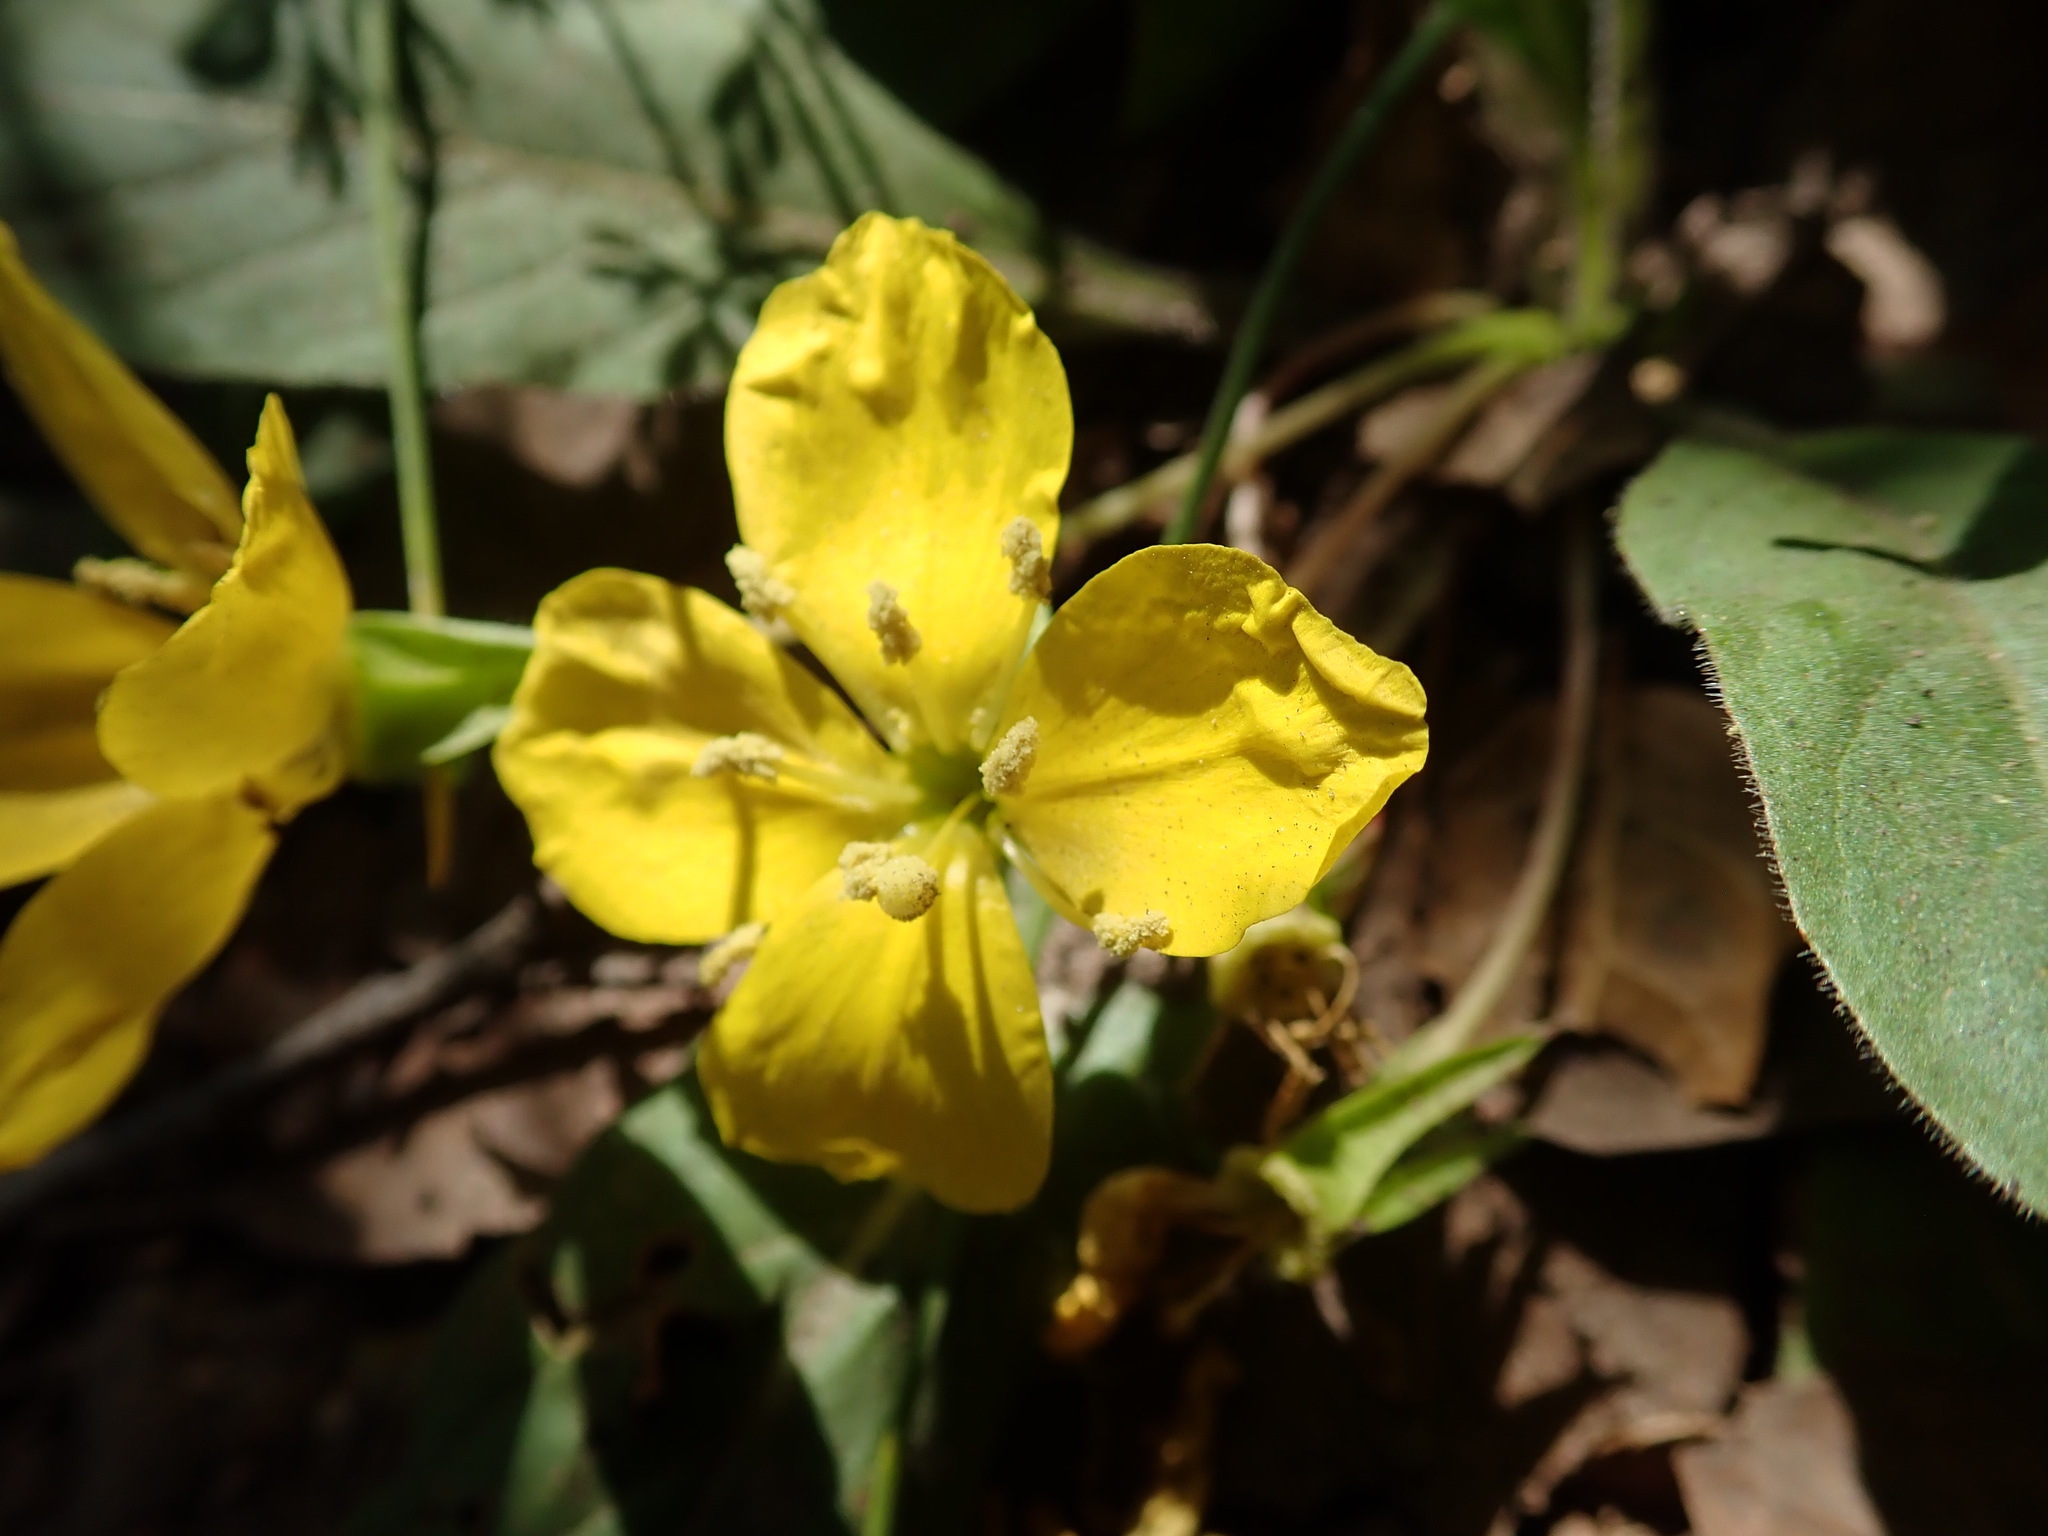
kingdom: Plantae
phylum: Tracheophyta
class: Magnoliopsida
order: Myrtales
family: Onagraceae
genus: Taraxia
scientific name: Taraxia ovata
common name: Goldeneggs
